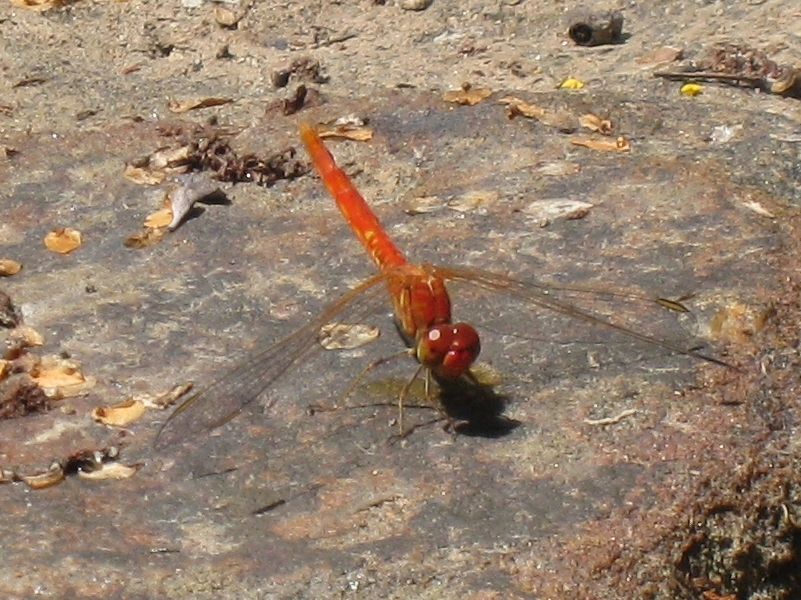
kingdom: Animalia
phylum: Arthropoda
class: Insecta
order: Odonata
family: Libellulidae
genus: Diplacodes
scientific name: Diplacodes haematodes
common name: Scarlet percher
